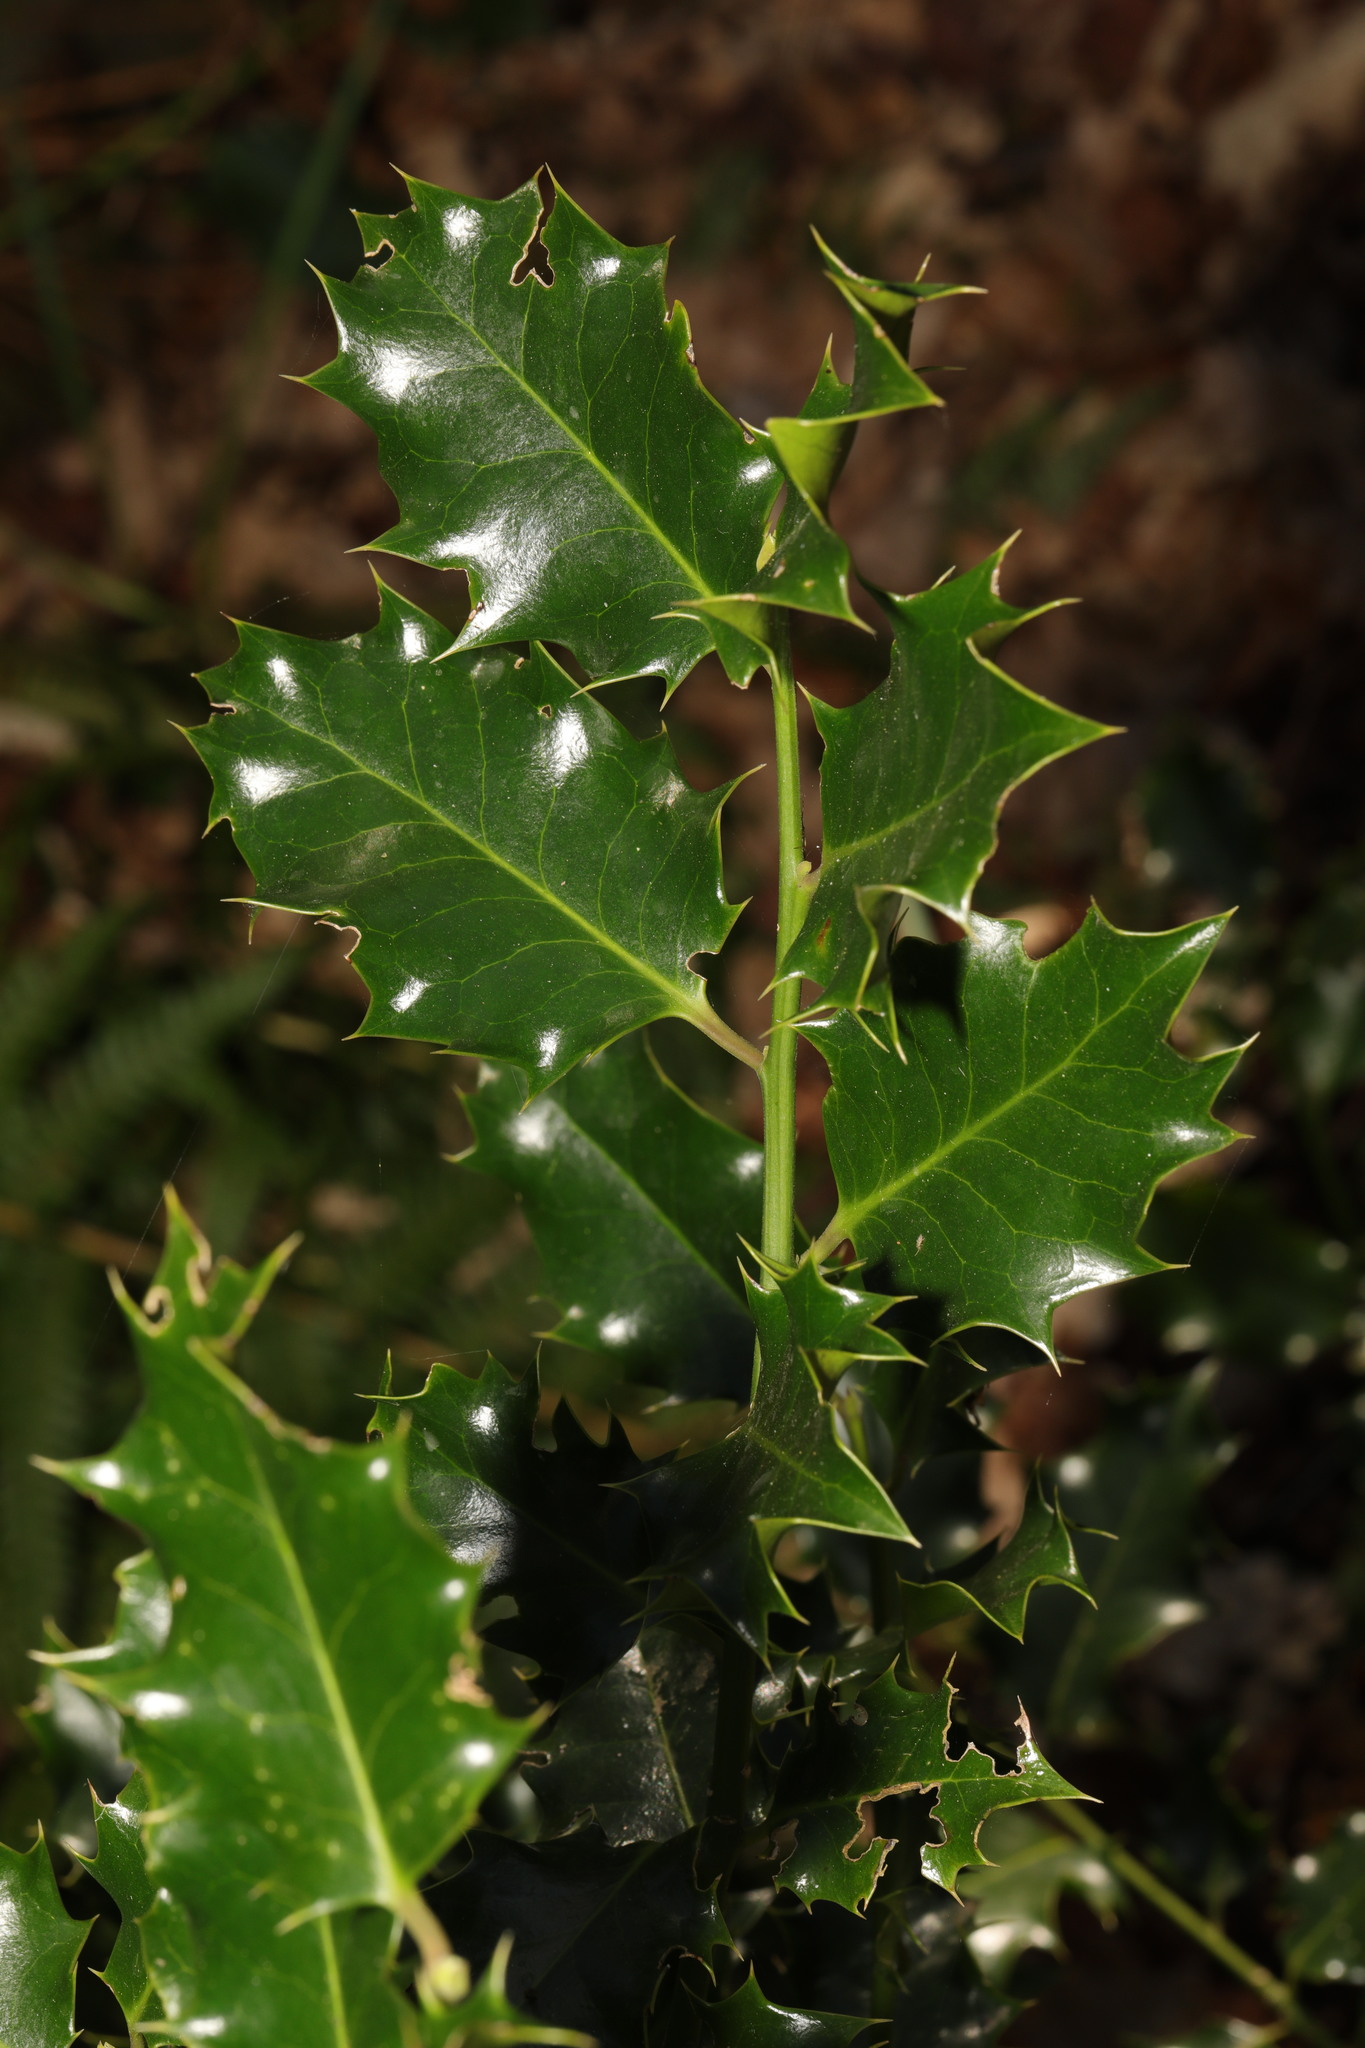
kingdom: Plantae
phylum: Tracheophyta
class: Magnoliopsida
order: Aquifoliales
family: Aquifoliaceae
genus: Ilex
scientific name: Ilex aquifolium
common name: English holly
